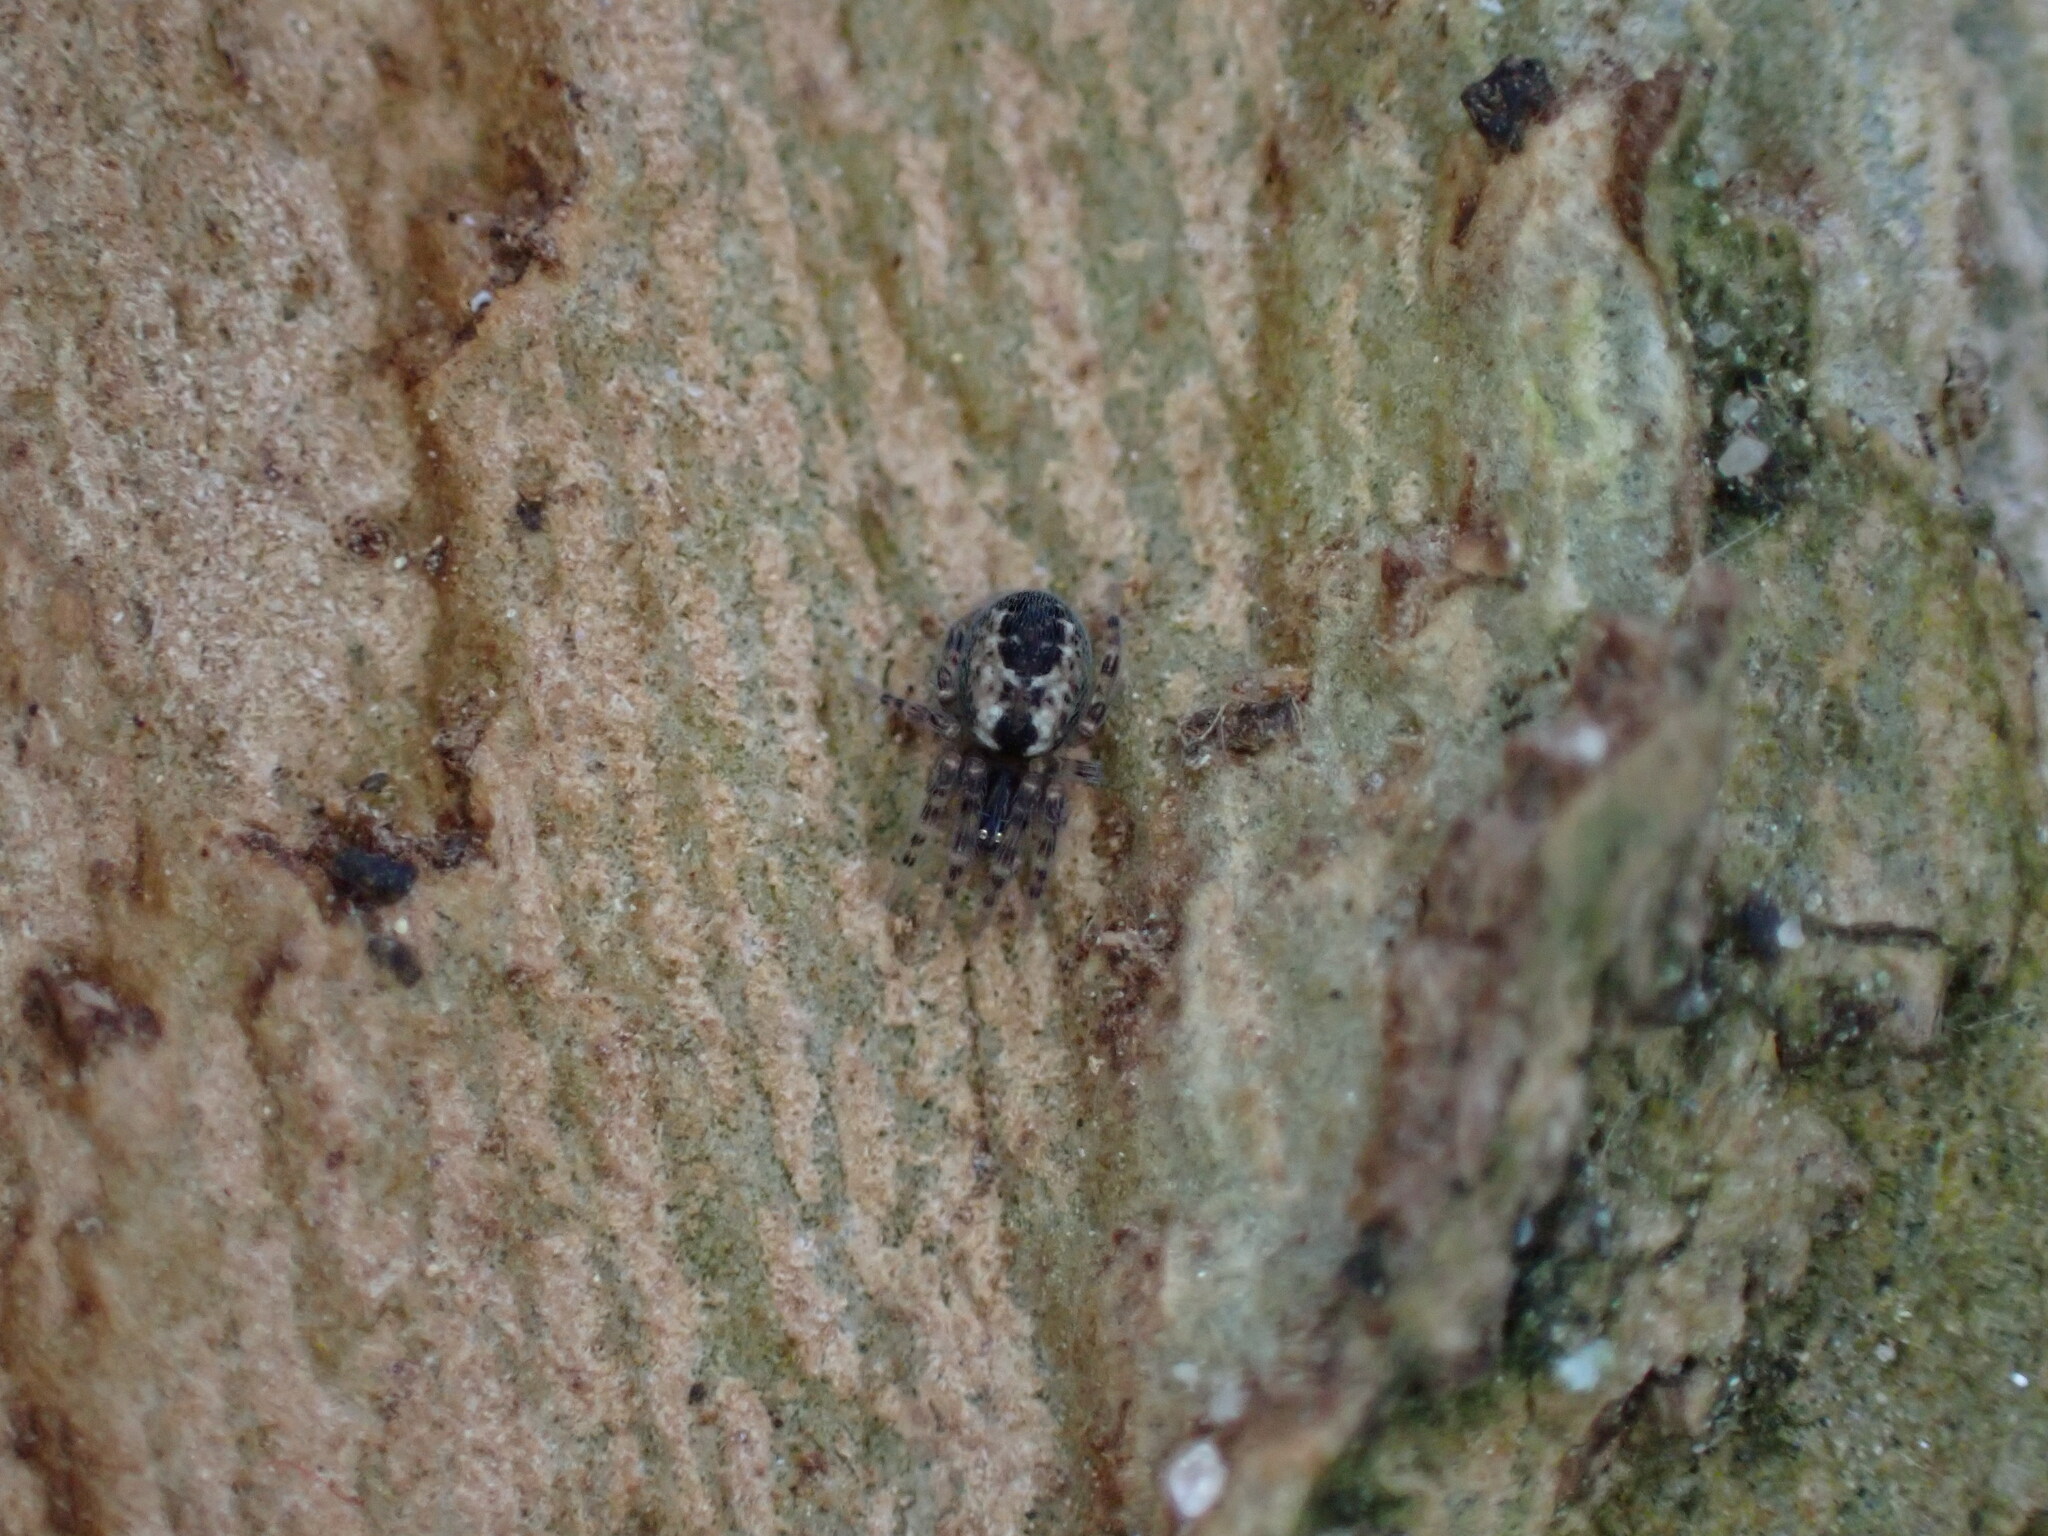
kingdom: Animalia
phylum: Arthropoda
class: Arachnida
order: Araneae
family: Dictynidae
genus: Lathys
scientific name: Lathys humilis
